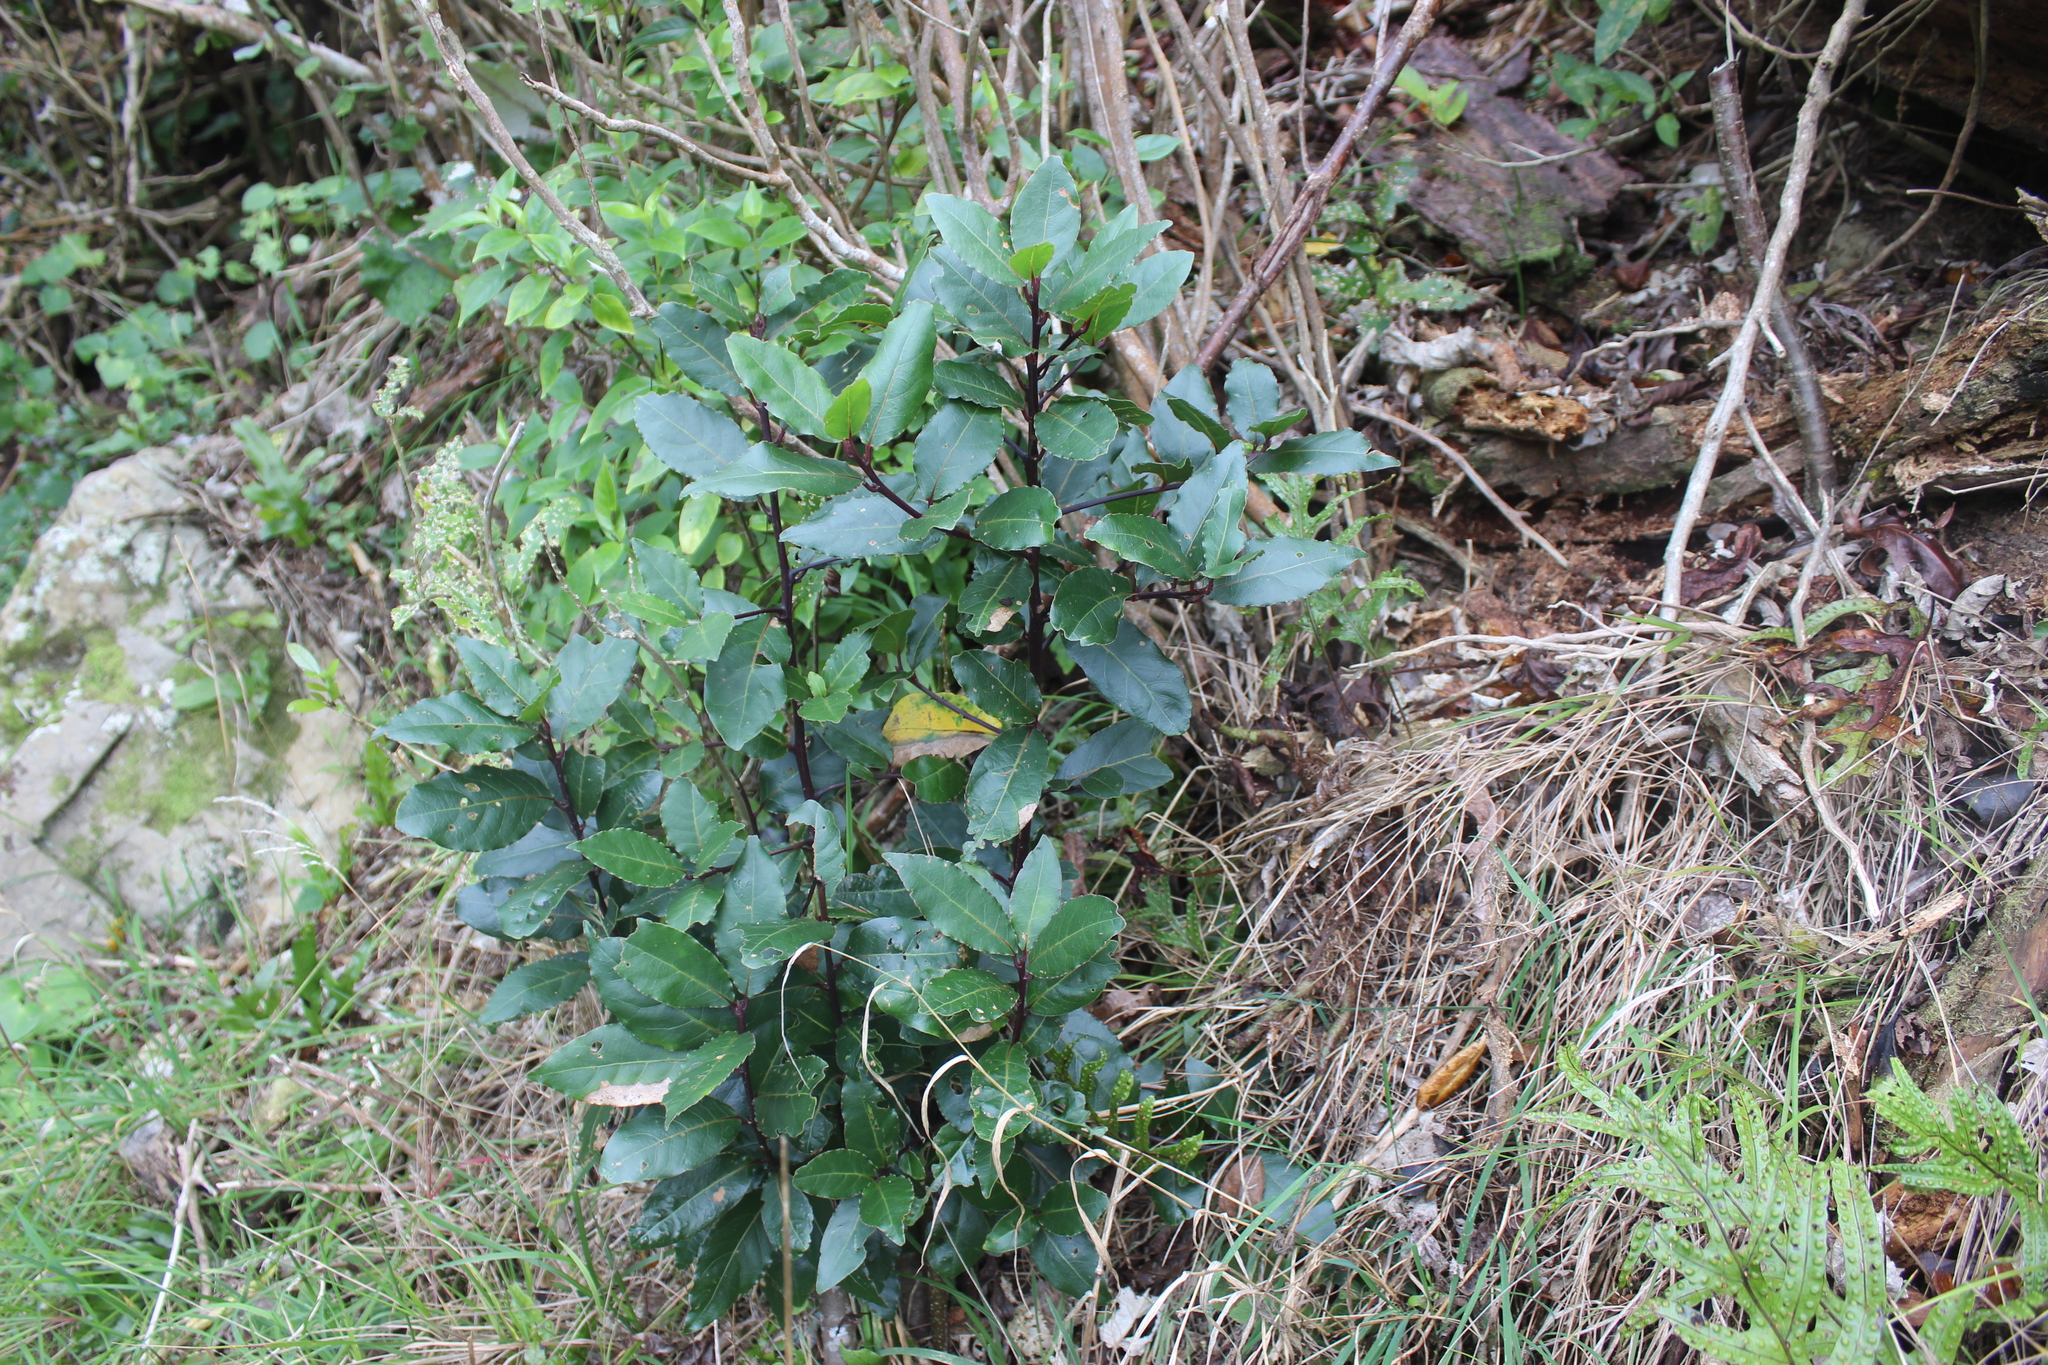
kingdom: Plantae
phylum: Tracheophyta
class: Magnoliopsida
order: Laurales
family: Lauraceae
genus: Laurus
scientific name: Laurus nobilis
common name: Bay
